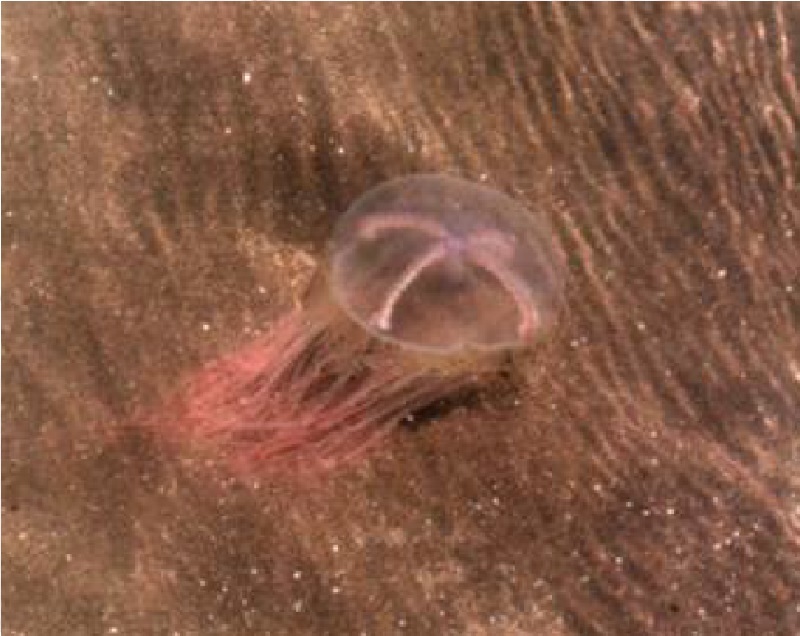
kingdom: Animalia
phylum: Cnidaria
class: Hydrozoa
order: Limnomedusae
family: Olindiidae
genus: Olindias
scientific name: Olindias sambaquiensis
